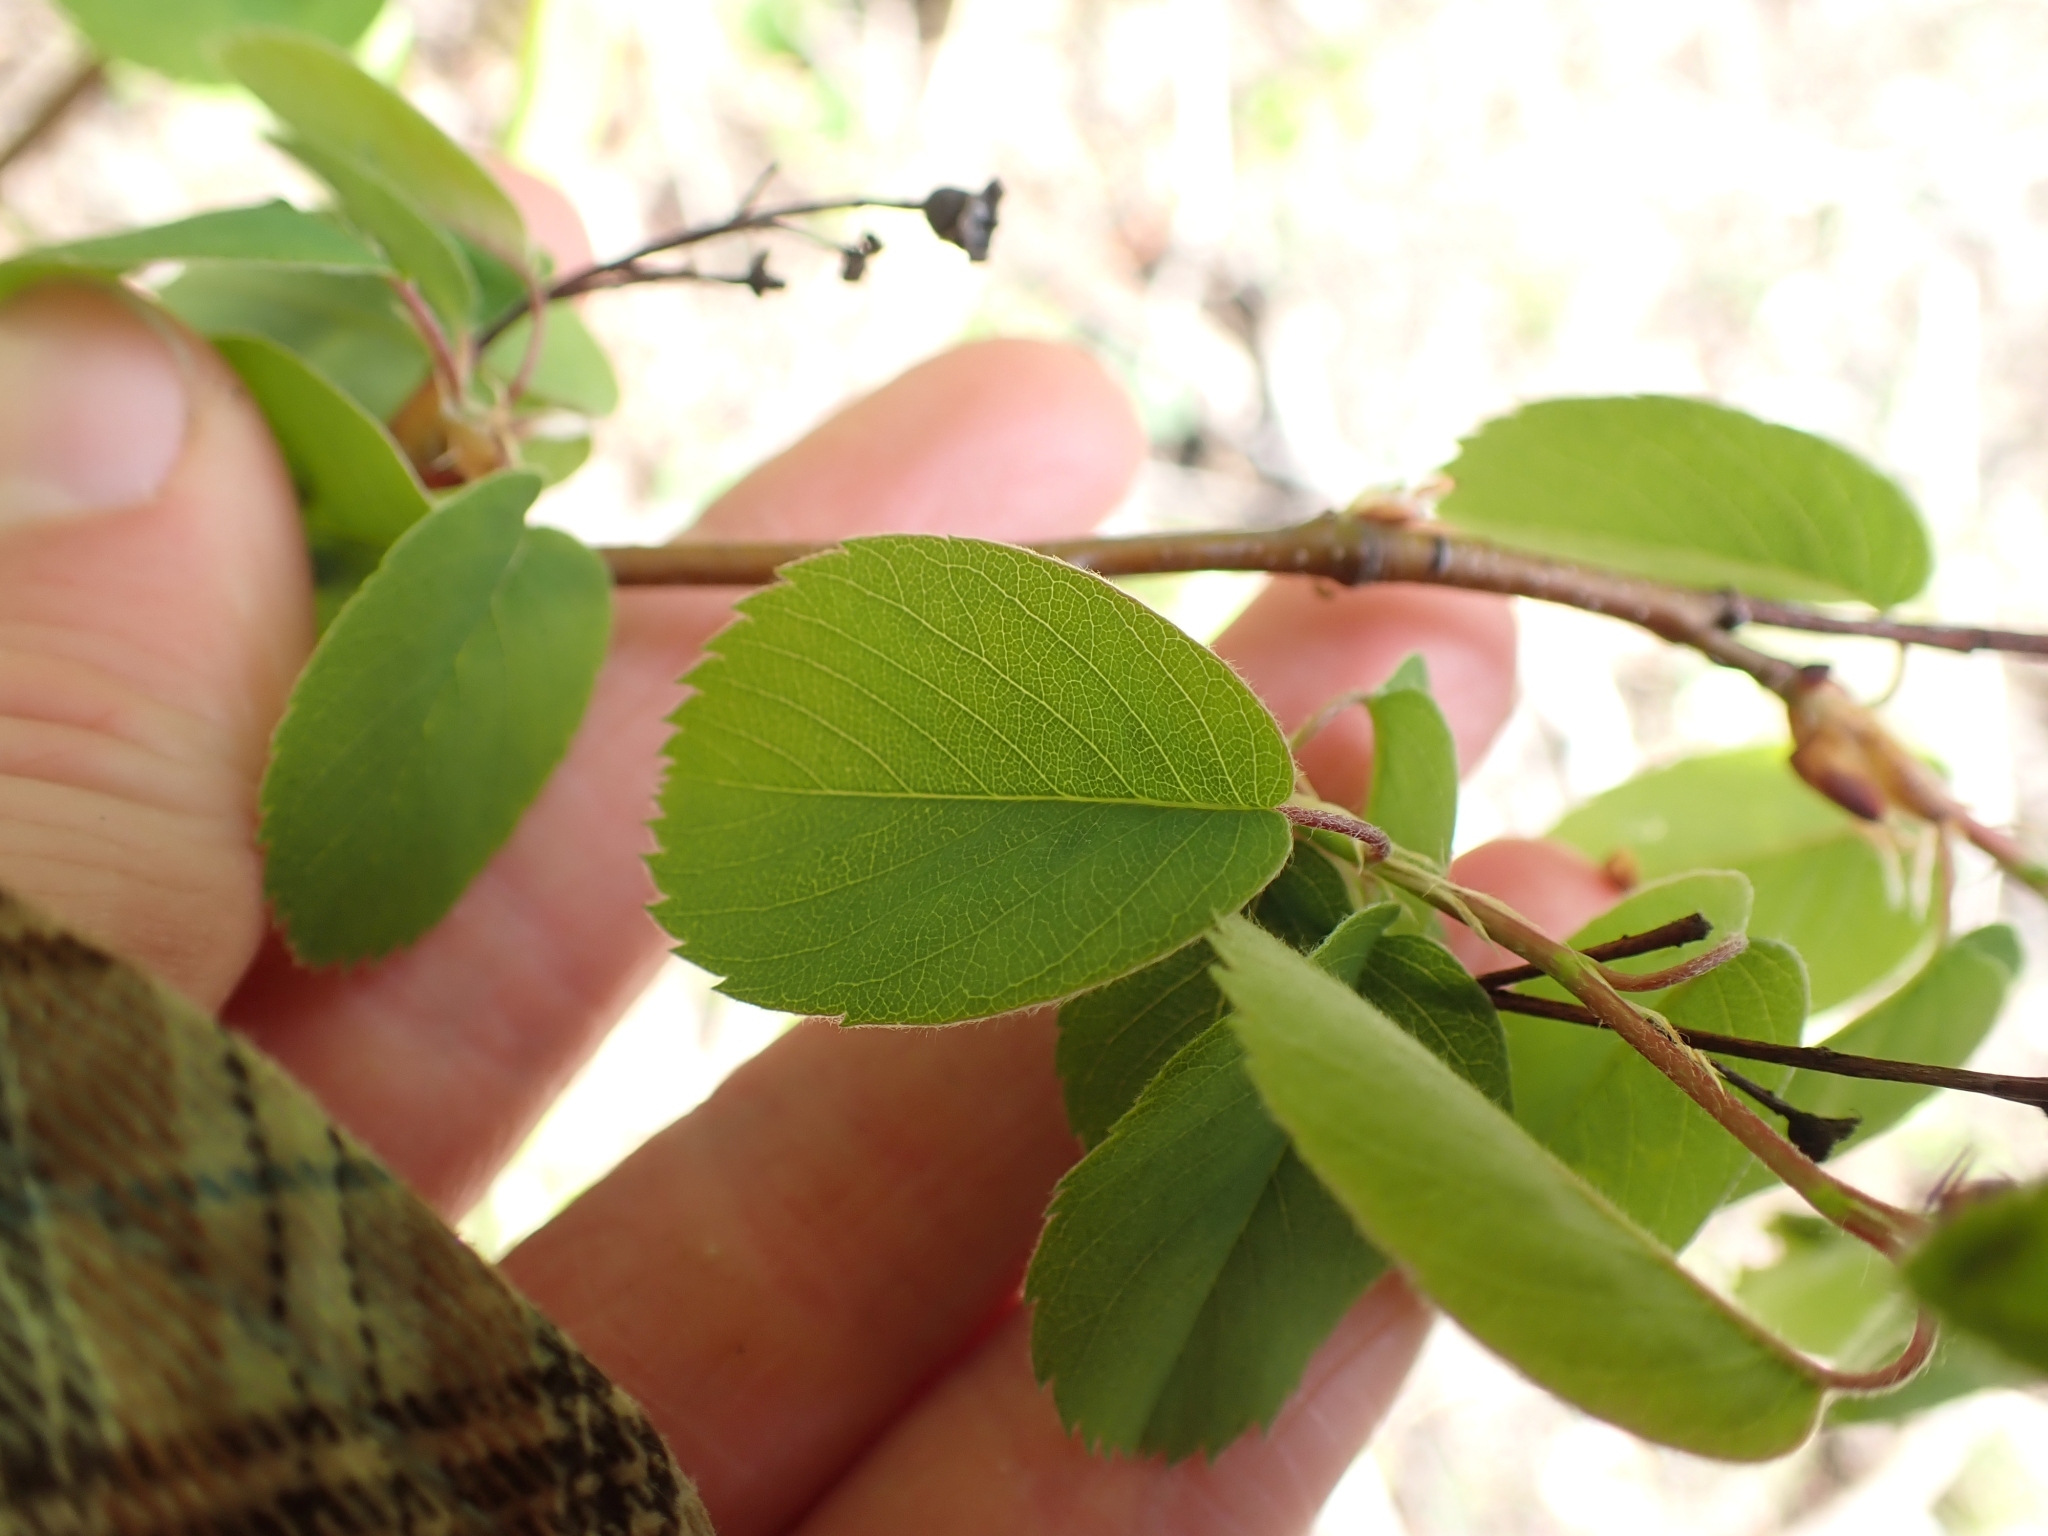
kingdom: Plantae
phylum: Tracheophyta
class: Magnoliopsida
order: Rosales
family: Rosaceae
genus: Amelanchier
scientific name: Amelanchier alnifolia
